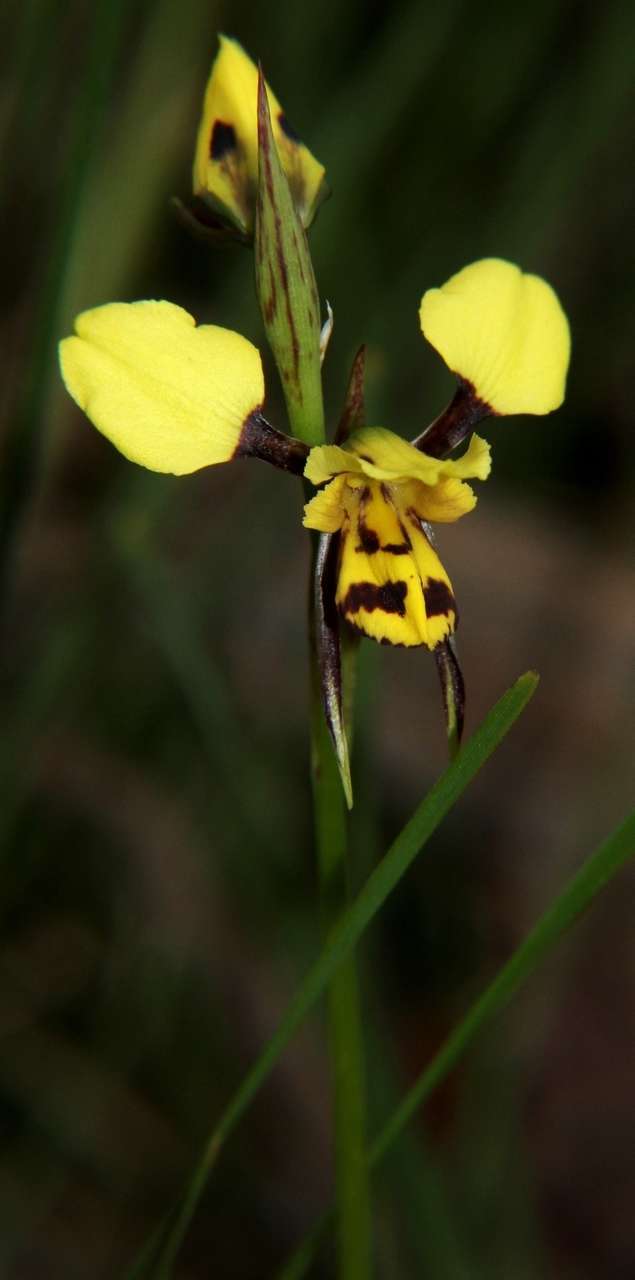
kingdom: Plantae
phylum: Tracheophyta
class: Liliopsida
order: Asparagales
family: Orchidaceae
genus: Diuris
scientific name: Diuris sulphurea
